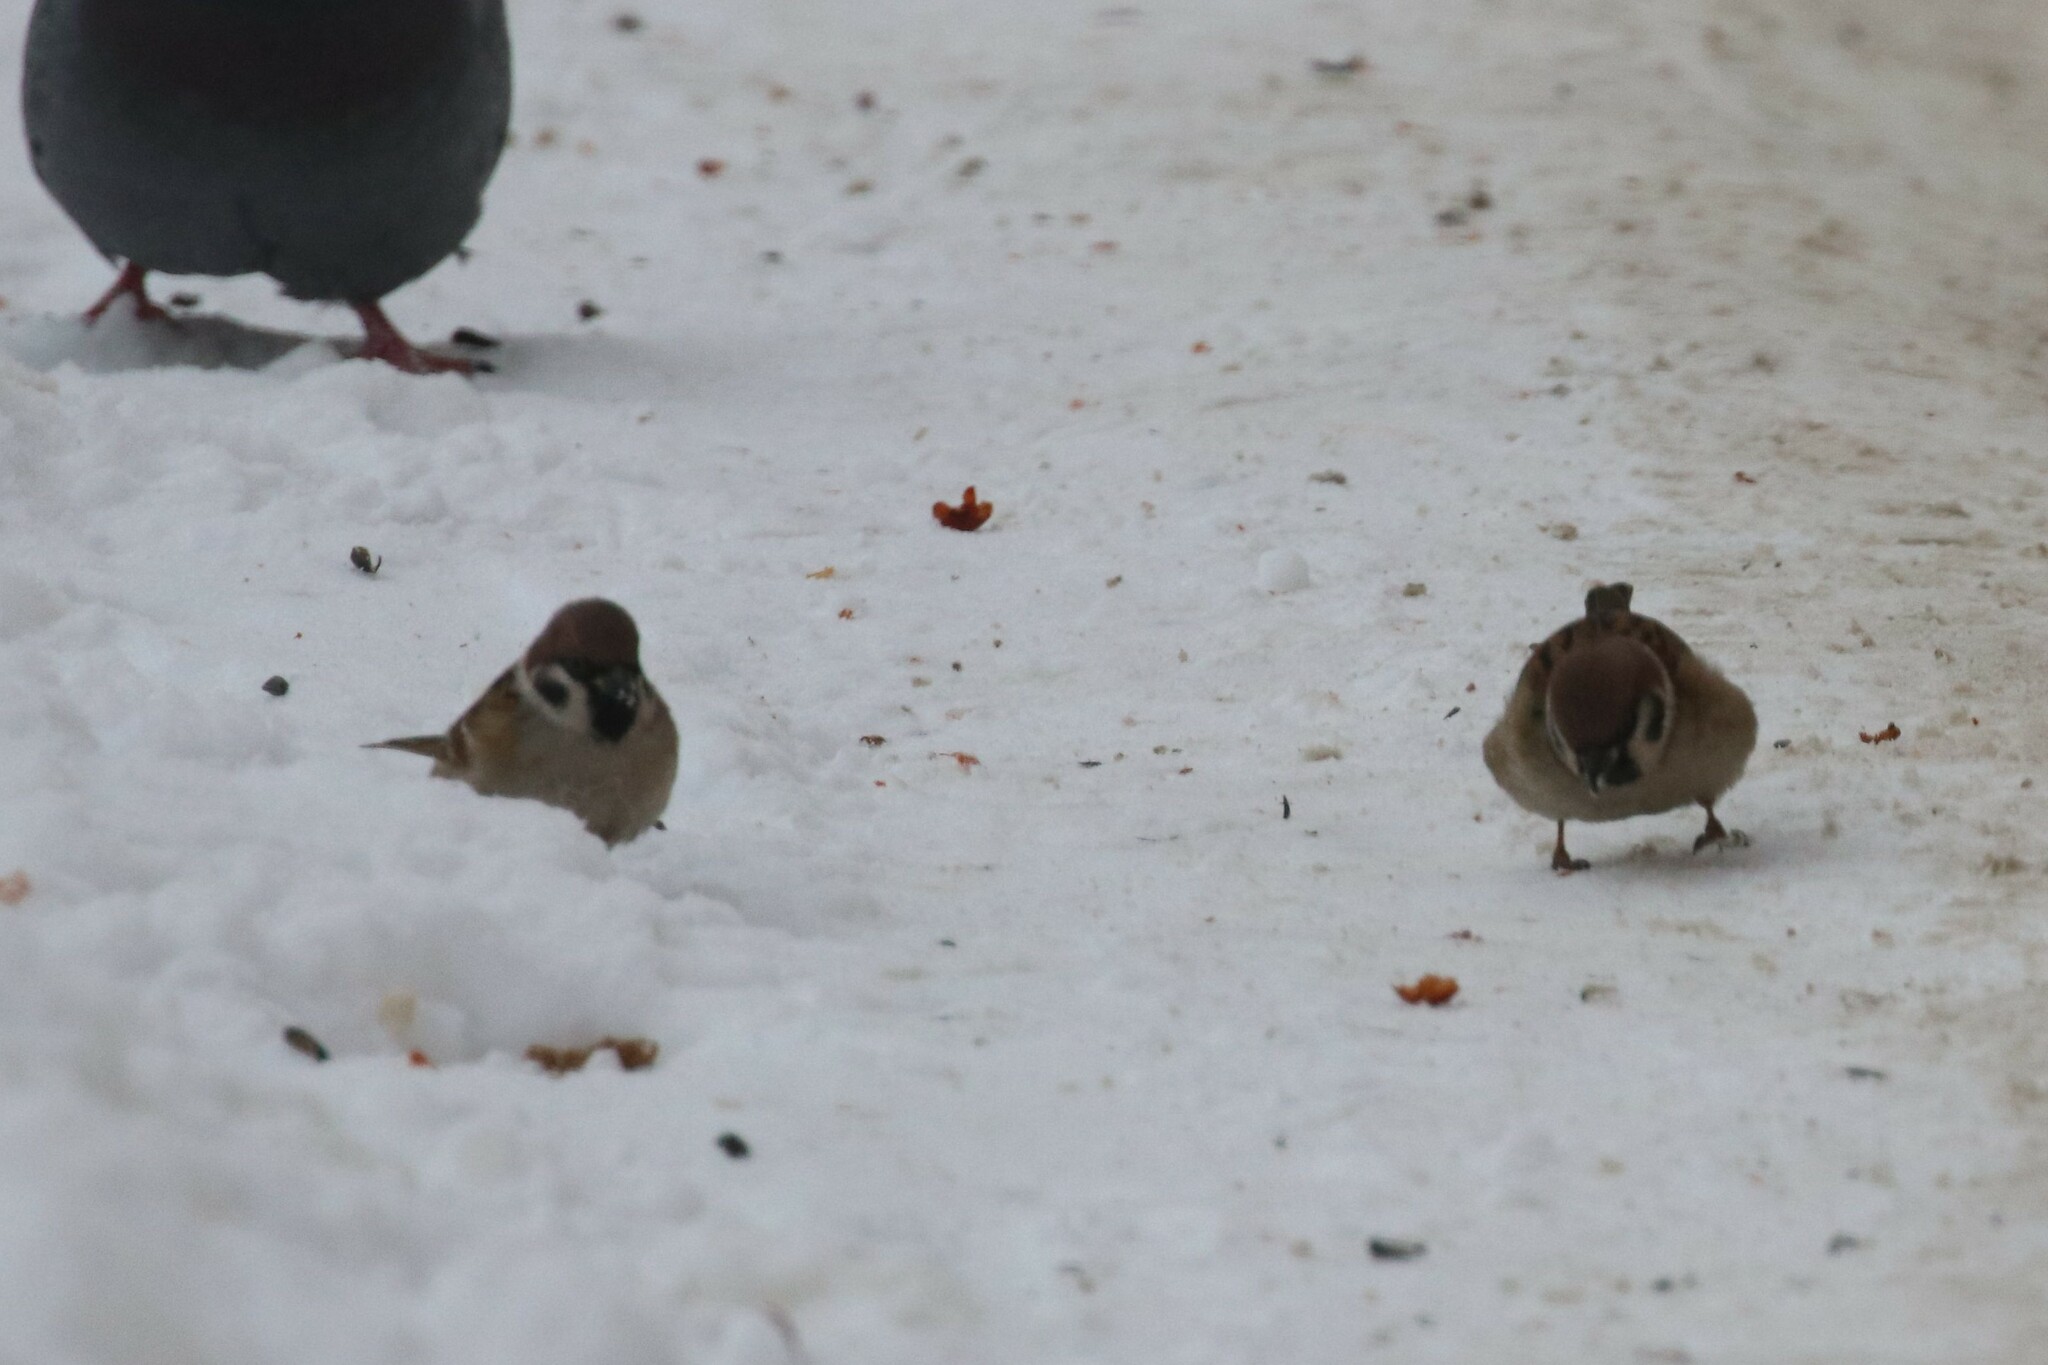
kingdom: Animalia
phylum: Chordata
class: Aves
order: Passeriformes
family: Passeridae
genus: Passer
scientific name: Passer montanus
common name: Eurasian tree sparrow
